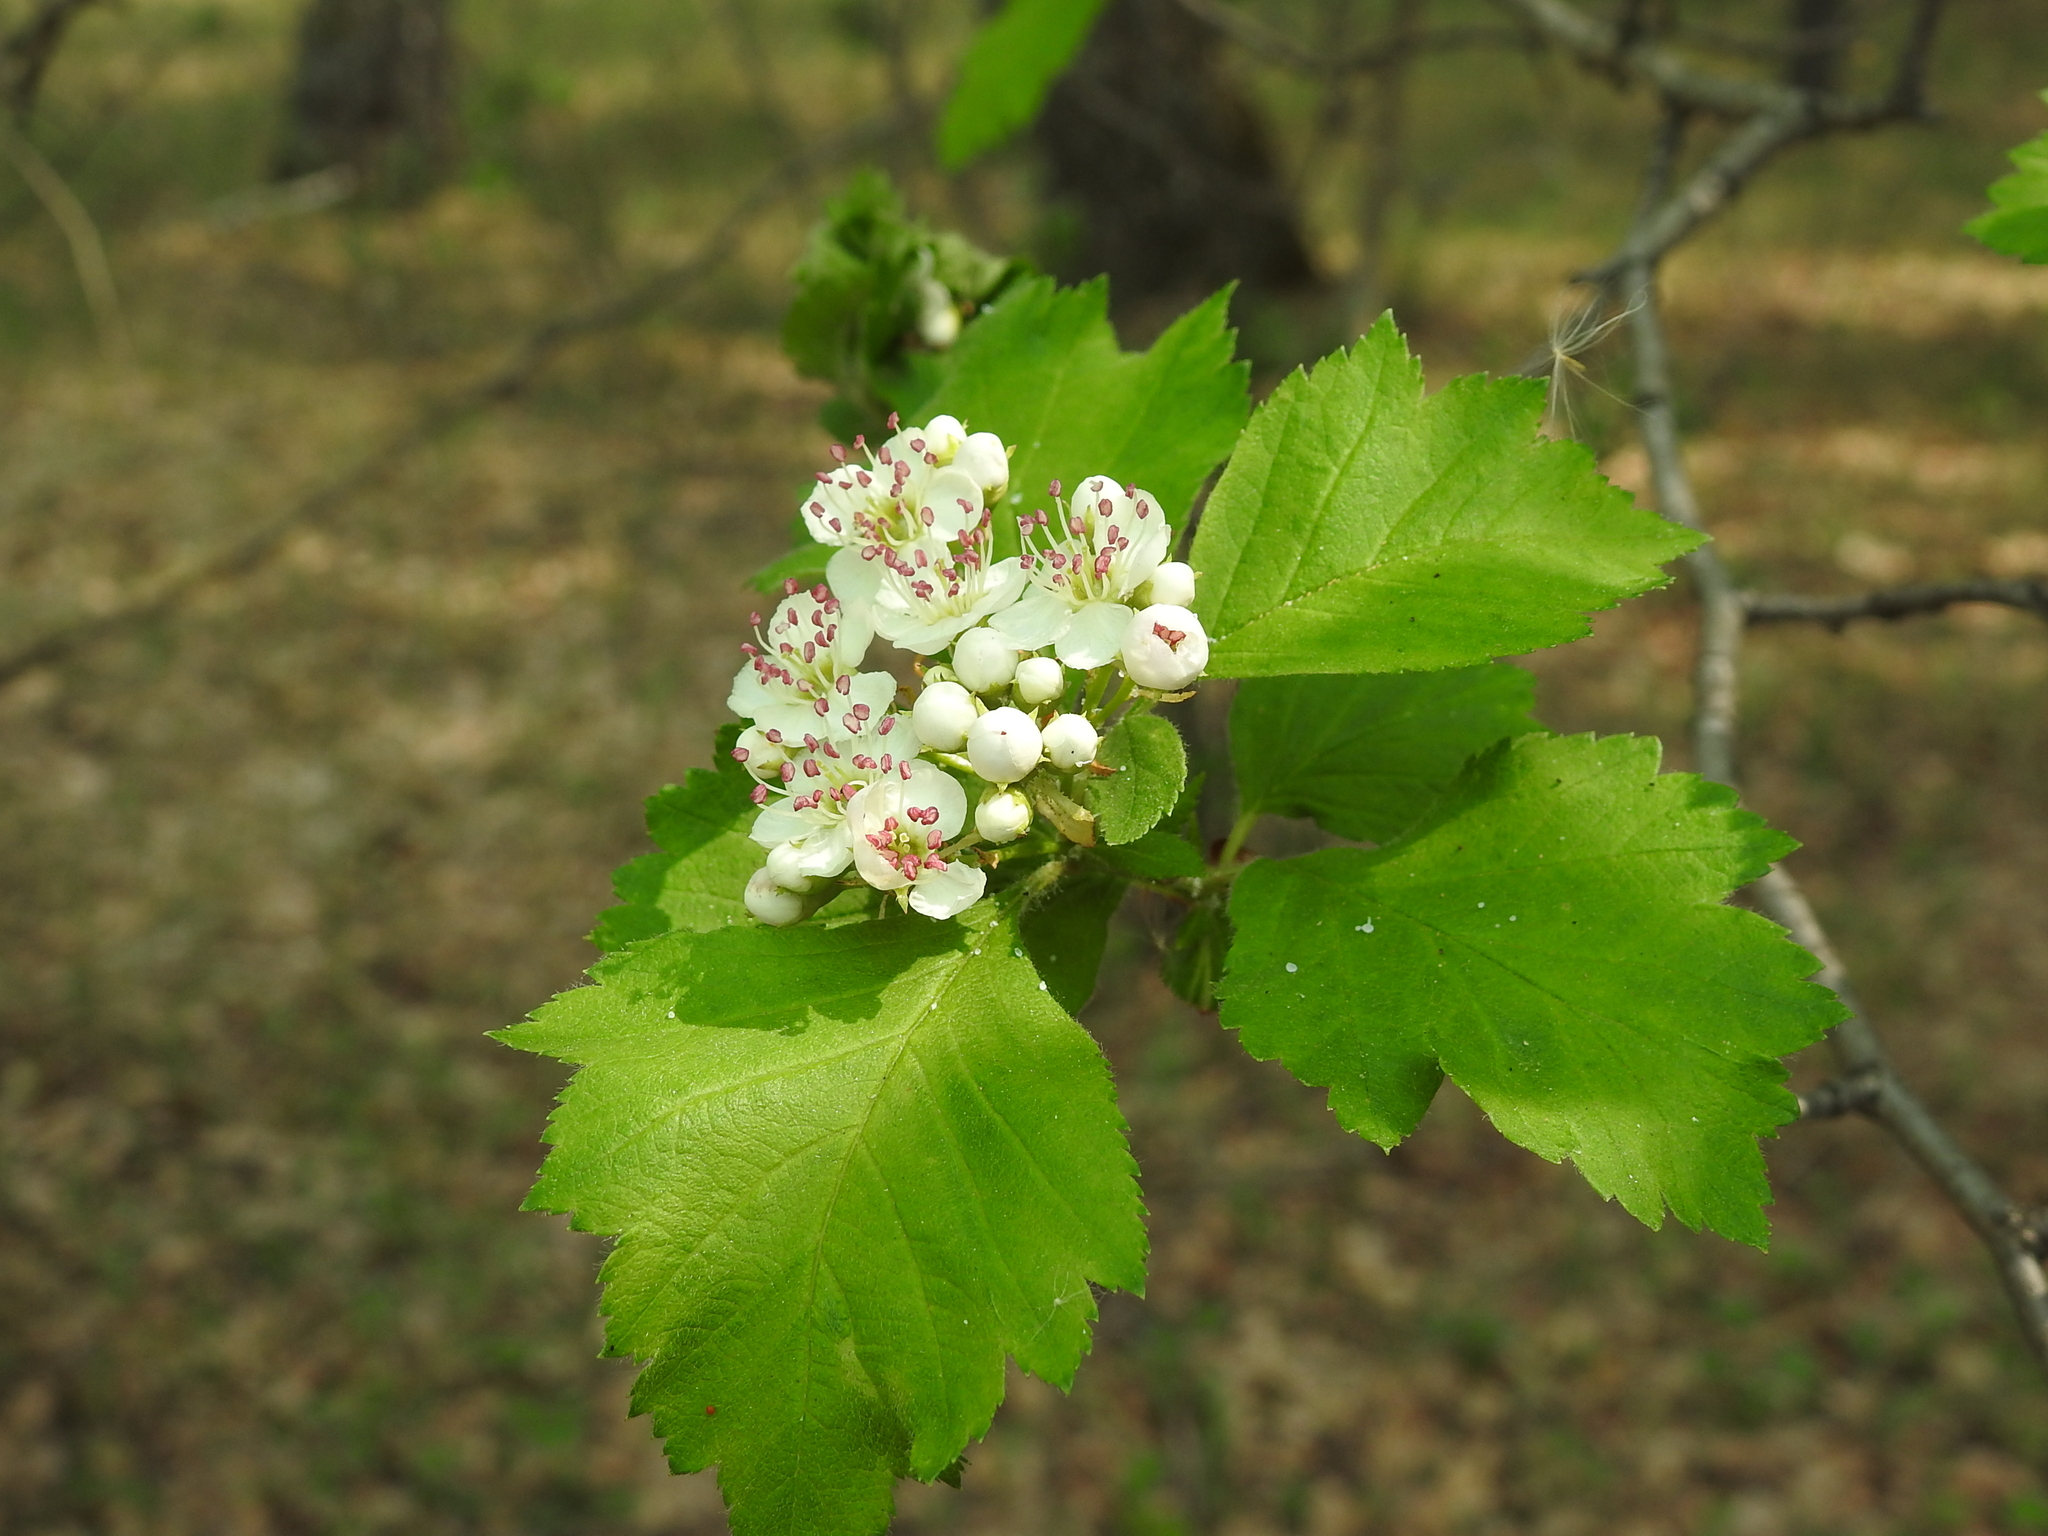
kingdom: Plantae
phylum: Tracheophyta
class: Magnoliopsida
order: Rosales
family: Rosaceae
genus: Crataegus
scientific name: Crataegus sanguinea
